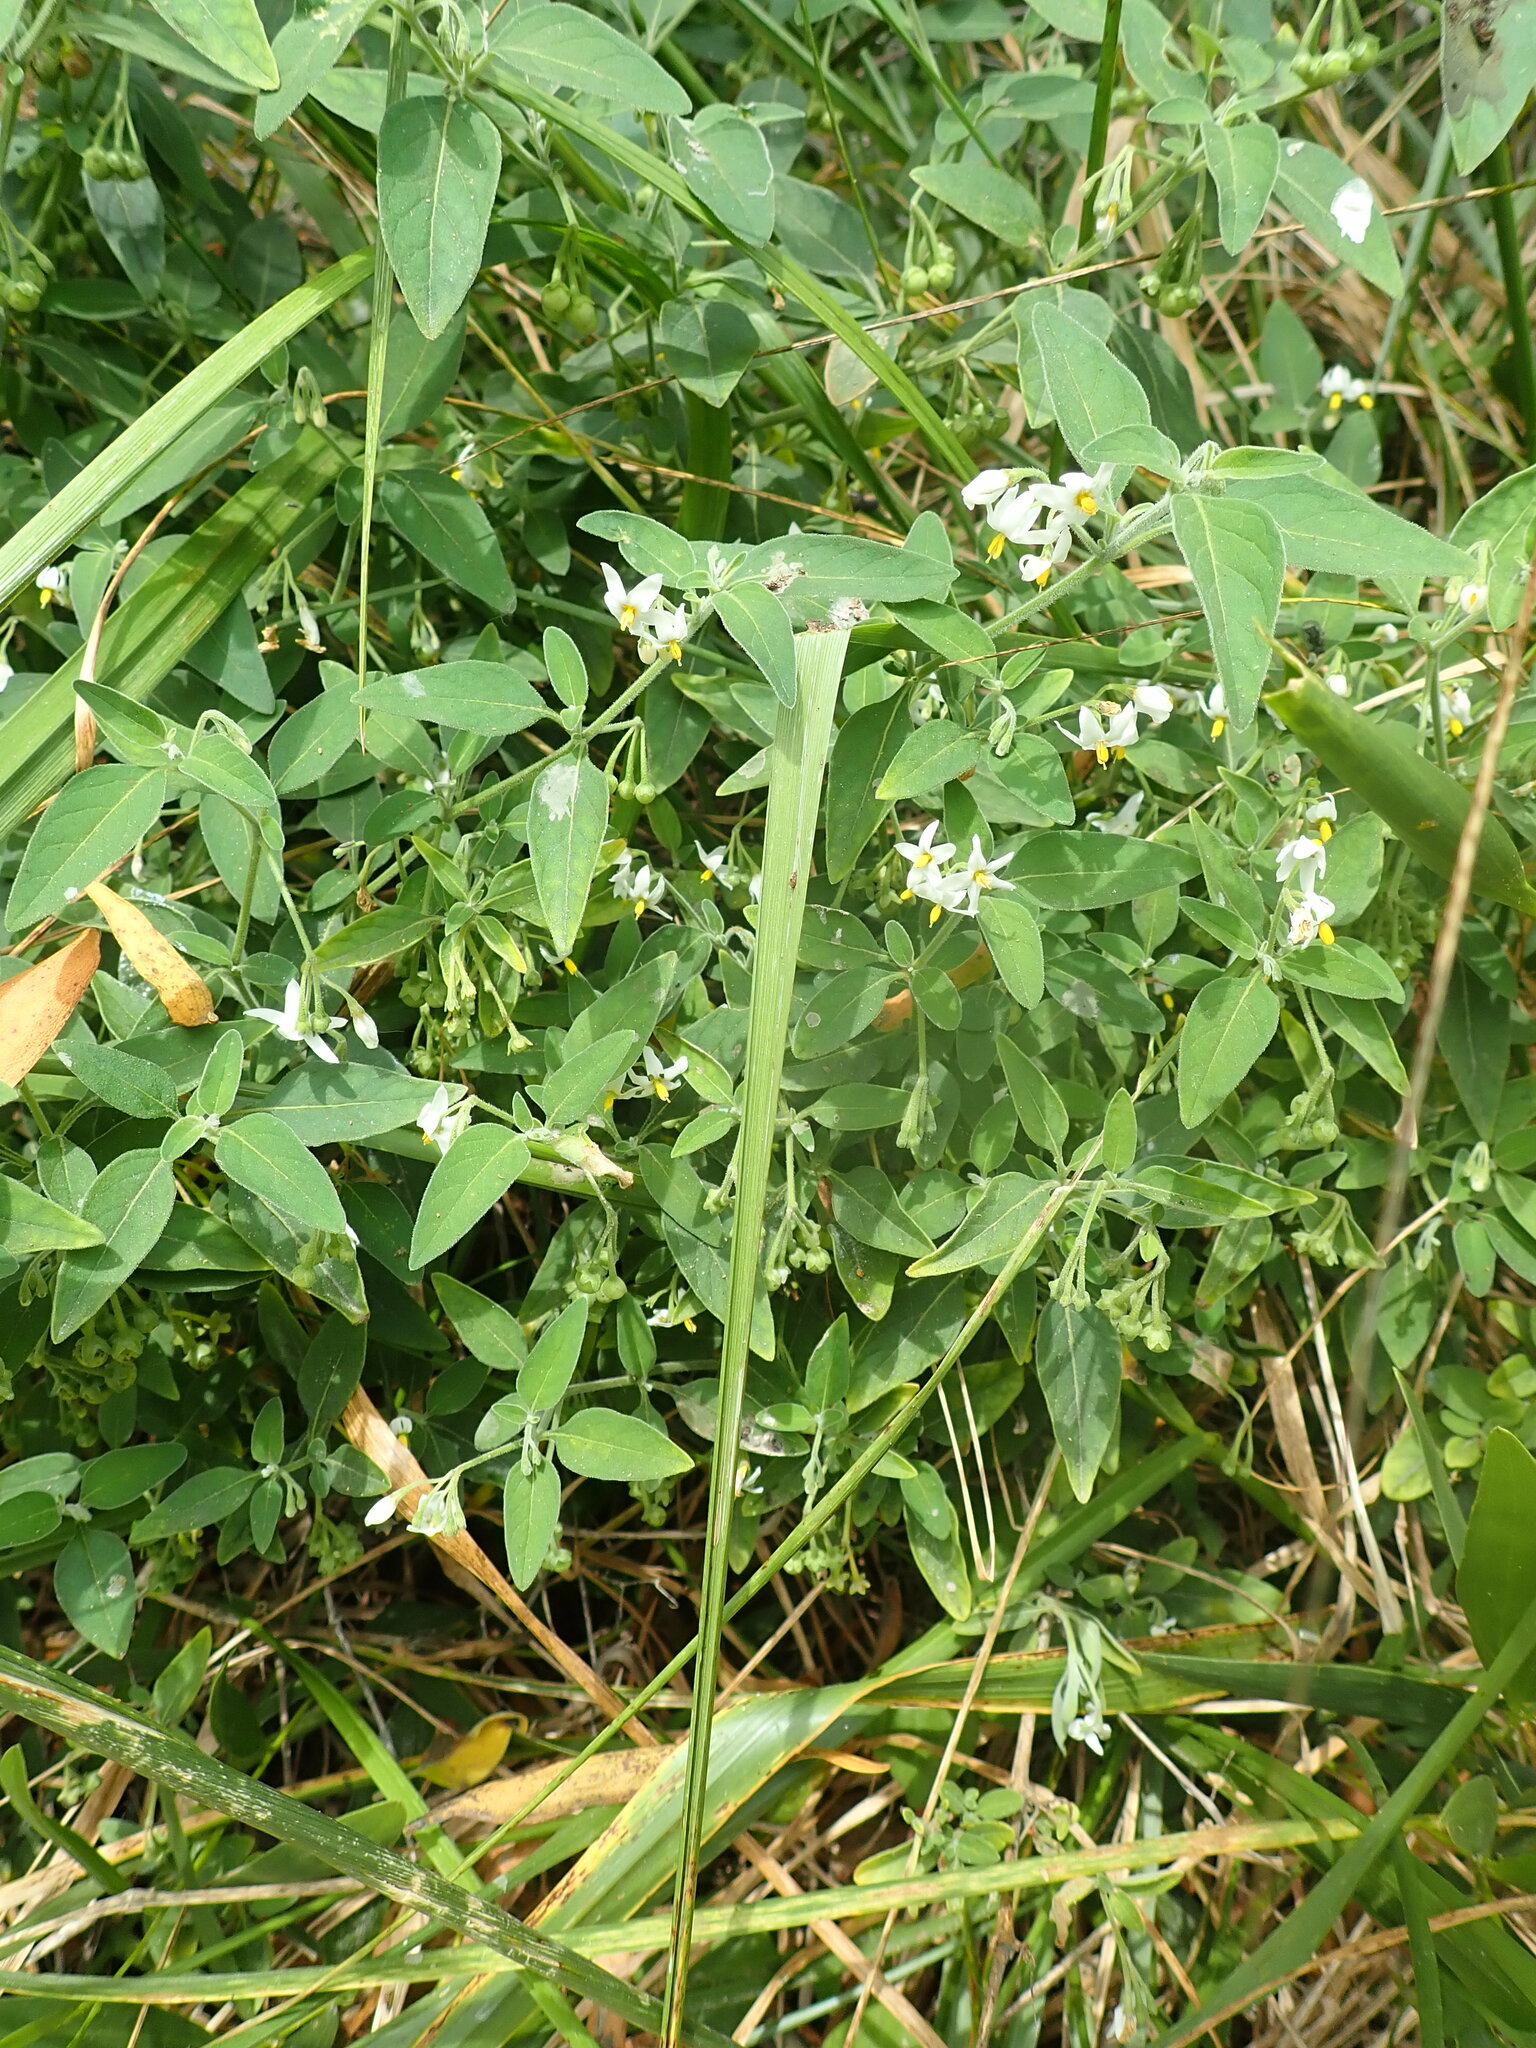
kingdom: Plantae
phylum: Tracheophyta
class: Magnoliopsida
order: Solanales
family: Solanaceae
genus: Solanum
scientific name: Solanum chenopodioides
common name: Tall nightshade
